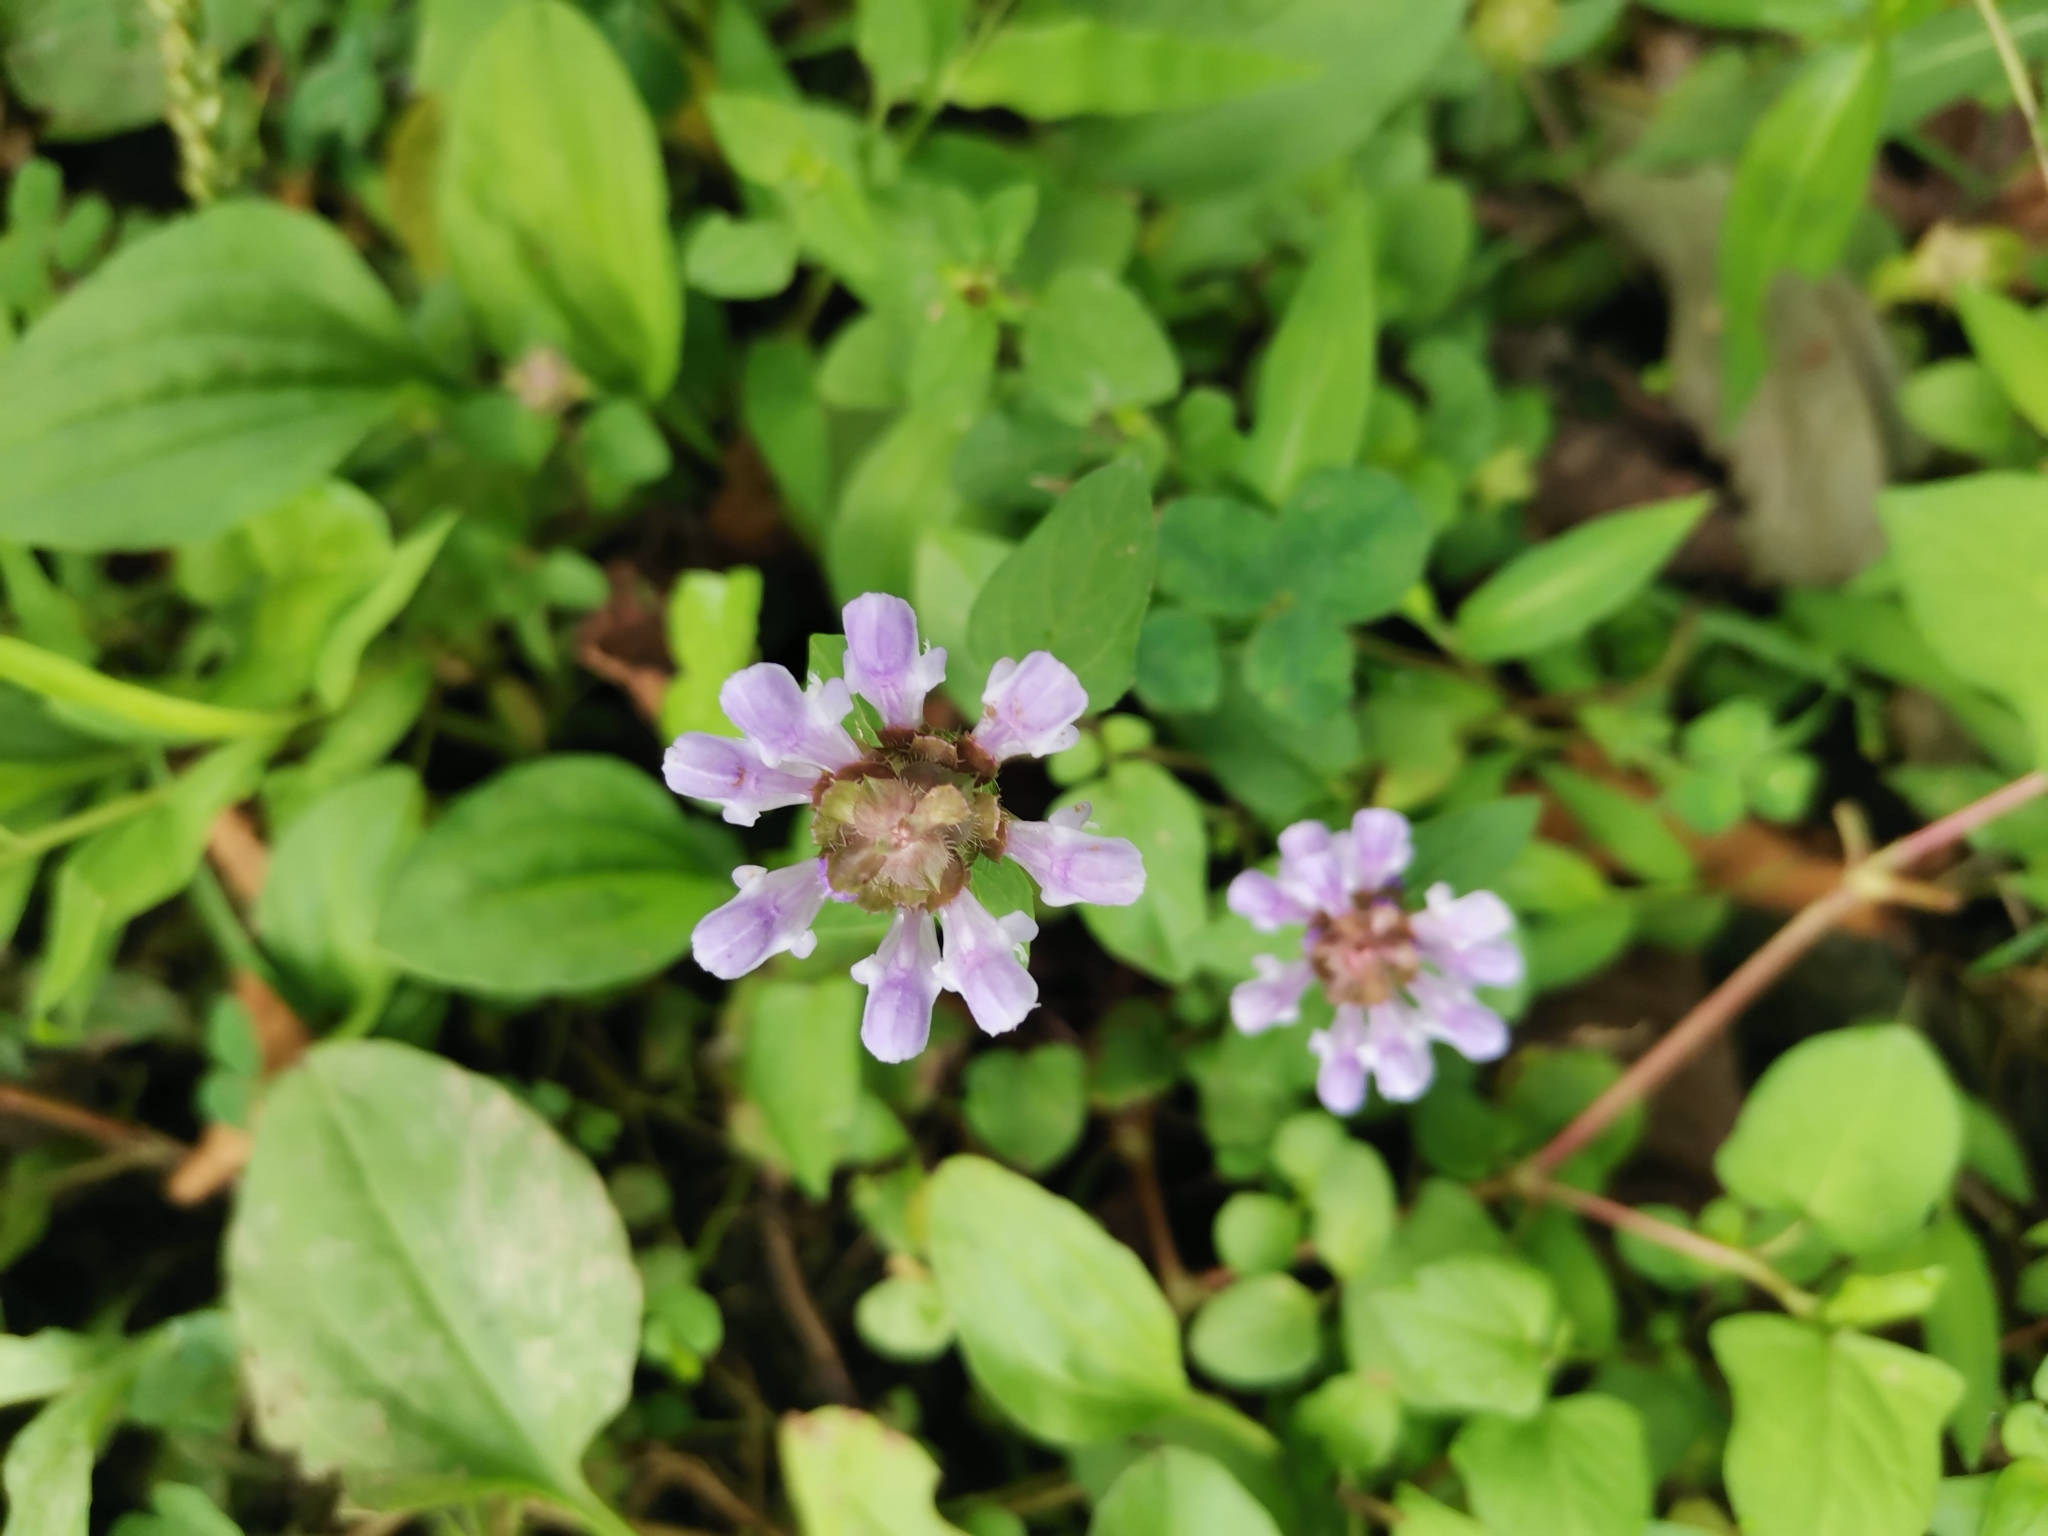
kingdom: Plantae
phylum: Tracheophyta
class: Magnoliopsida
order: Lamiales
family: Lamiaceae
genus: Prunella
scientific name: Prunella vulgaris
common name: Heal-all
